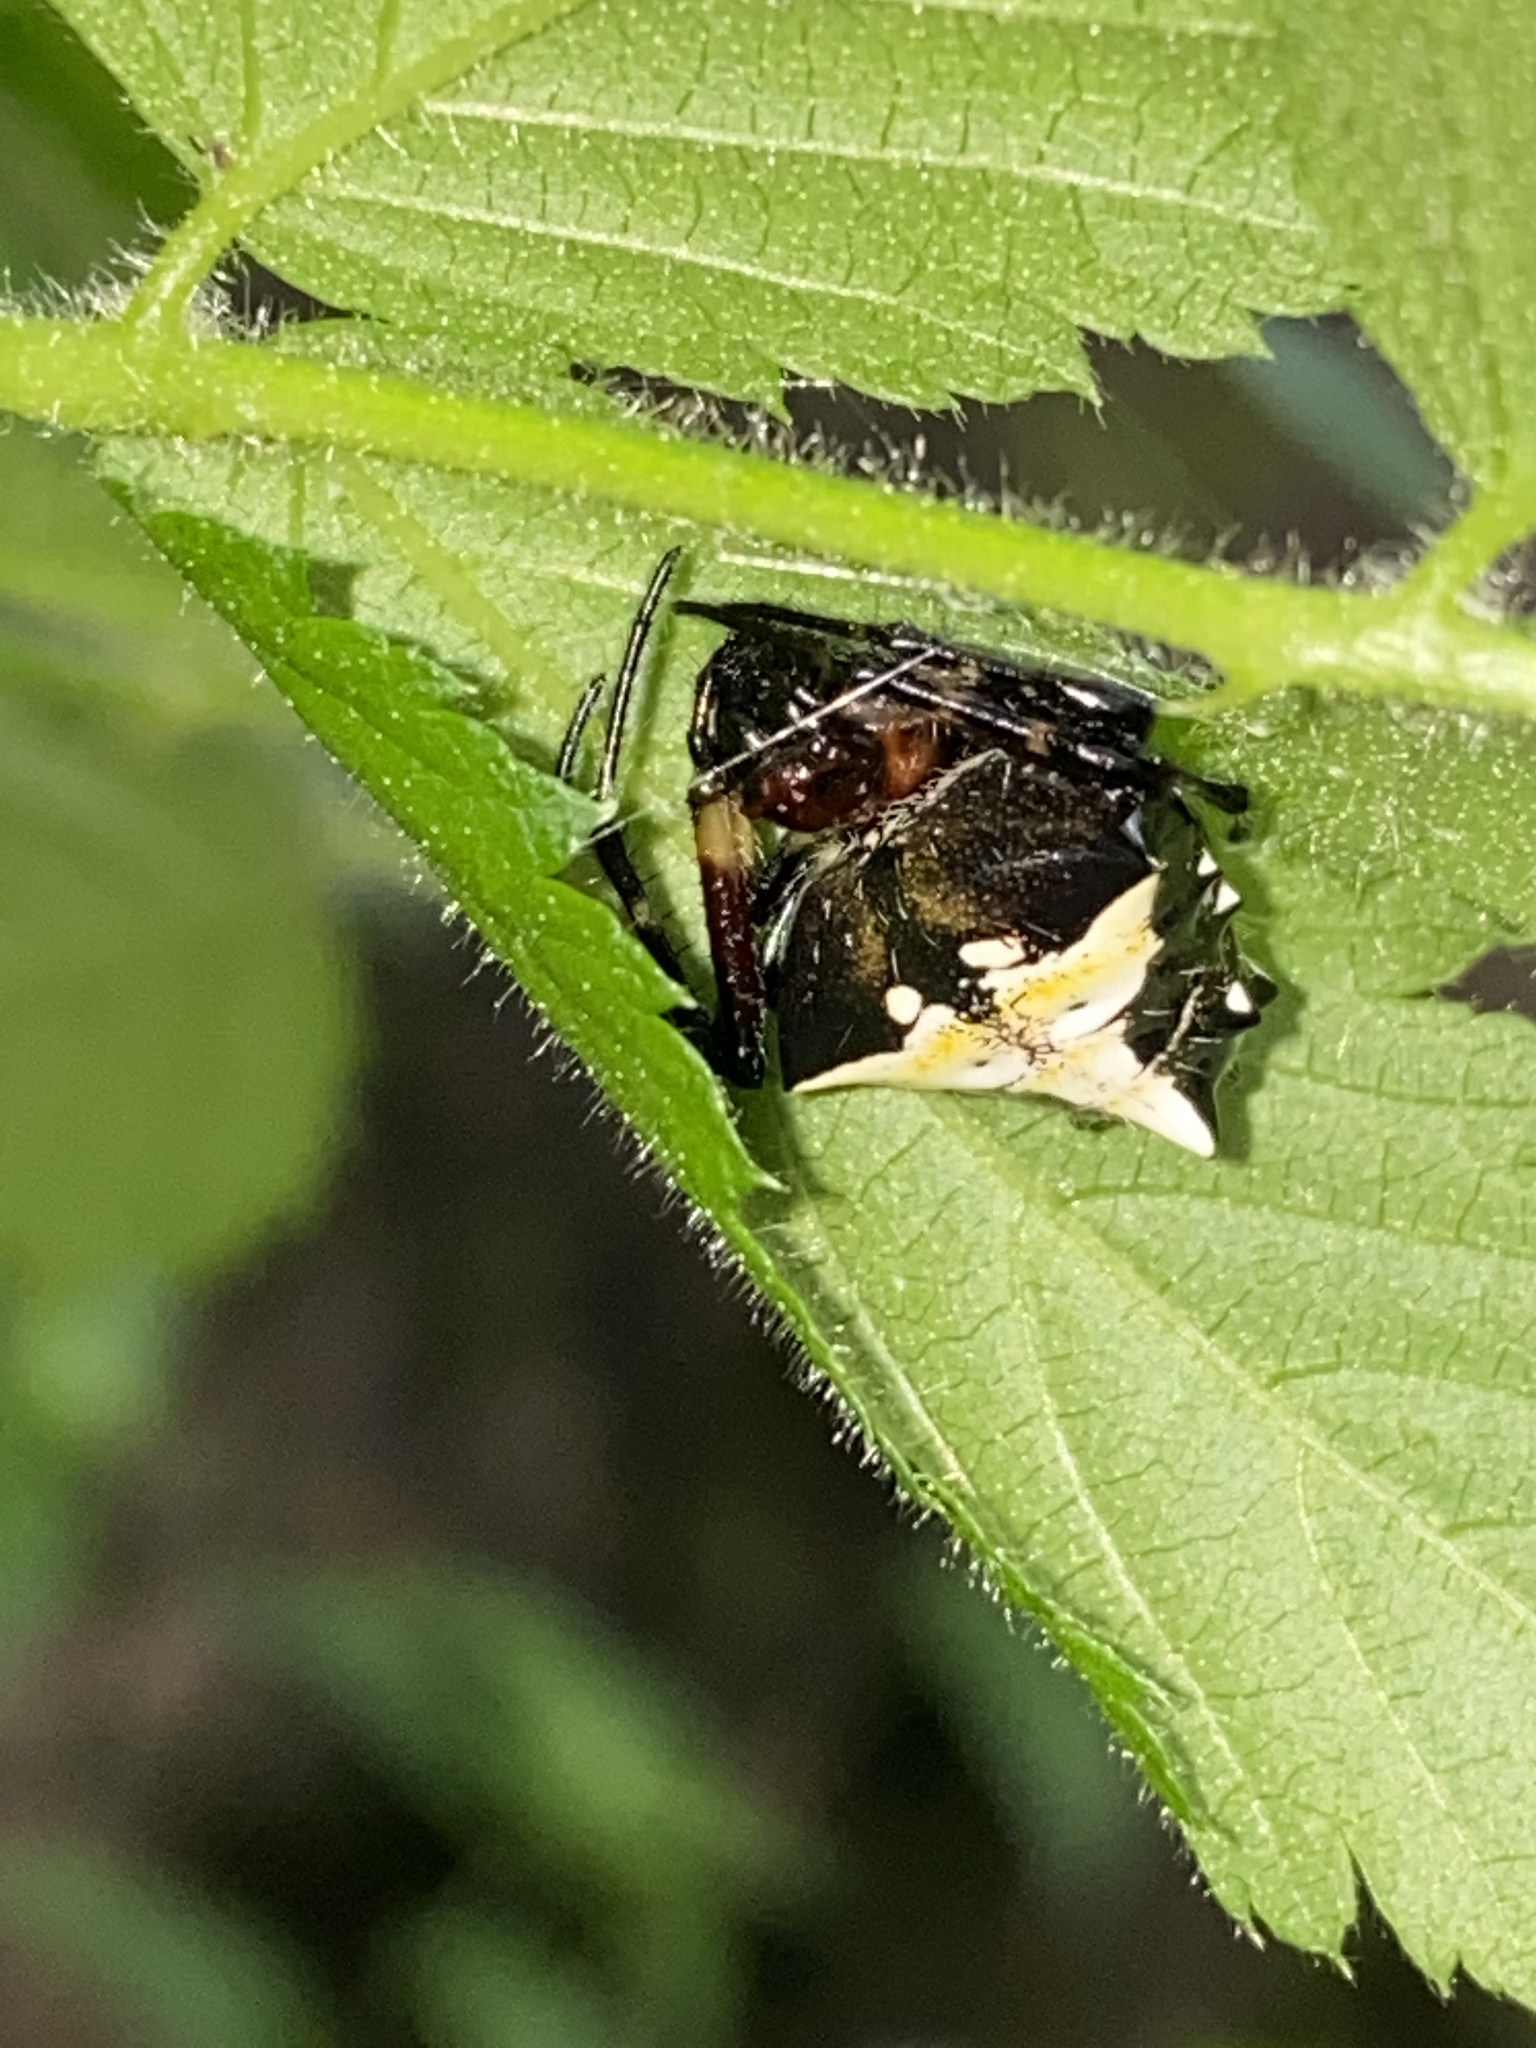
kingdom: Animalia
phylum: Arthropoda
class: Arachnida
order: Araneae
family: Araneidae
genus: Verrucosa
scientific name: Verrucosa arenata
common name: Orb weavers
